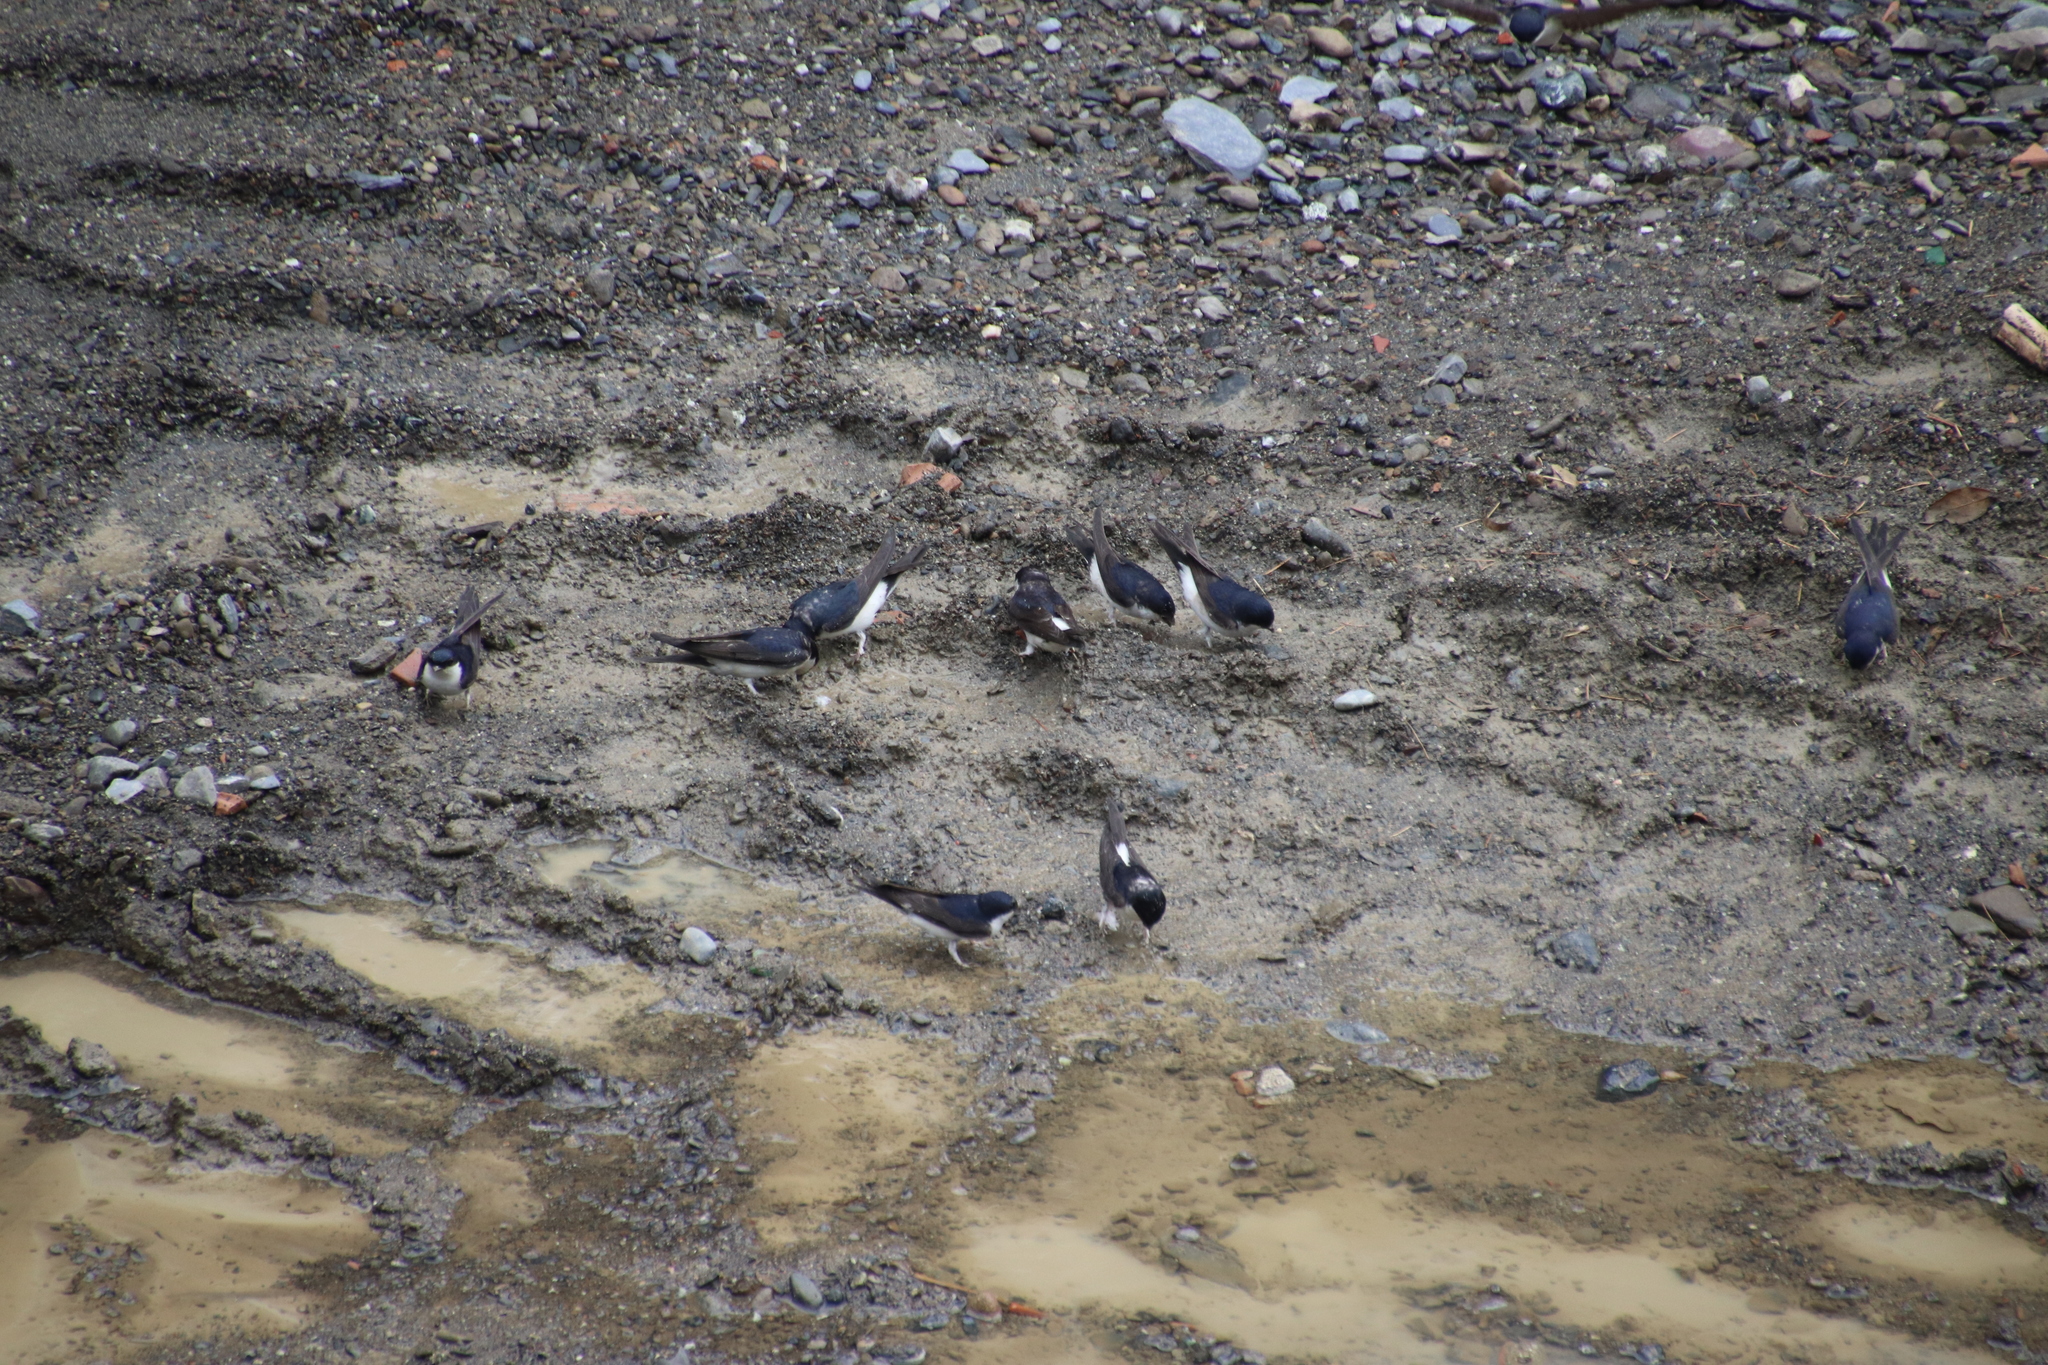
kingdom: Animalia
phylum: Chordata
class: Aves
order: Passeriformes
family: Hirundinidae
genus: Delichon
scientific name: Delichon urbicum
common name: Common house martin
